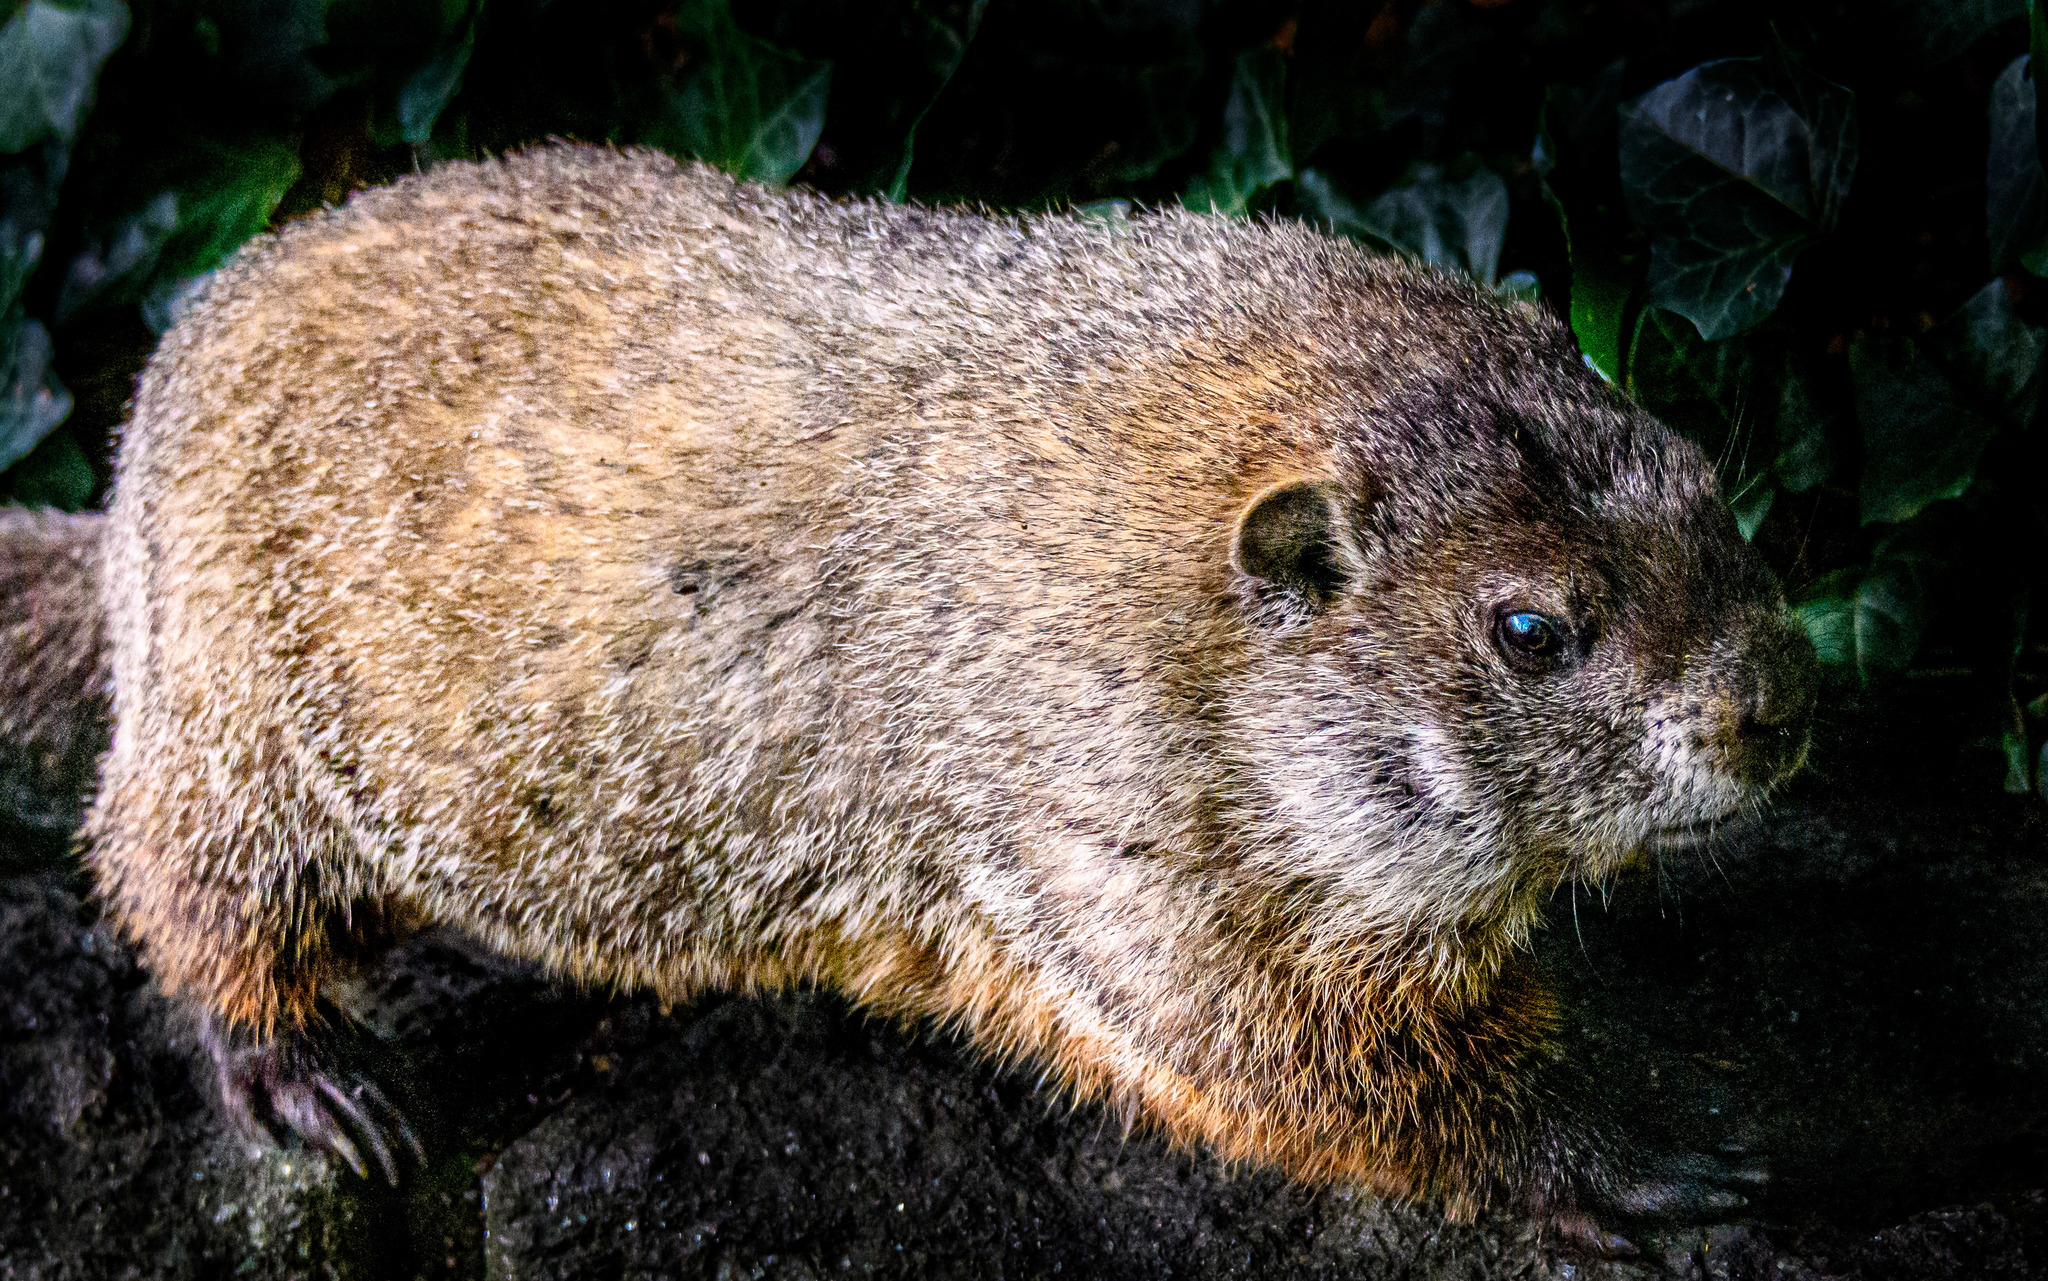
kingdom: Animalia
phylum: Chordata
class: Mammalia
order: Rodentia
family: Sciuridae
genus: Marmota
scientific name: Marmota monax
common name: Groundhog
